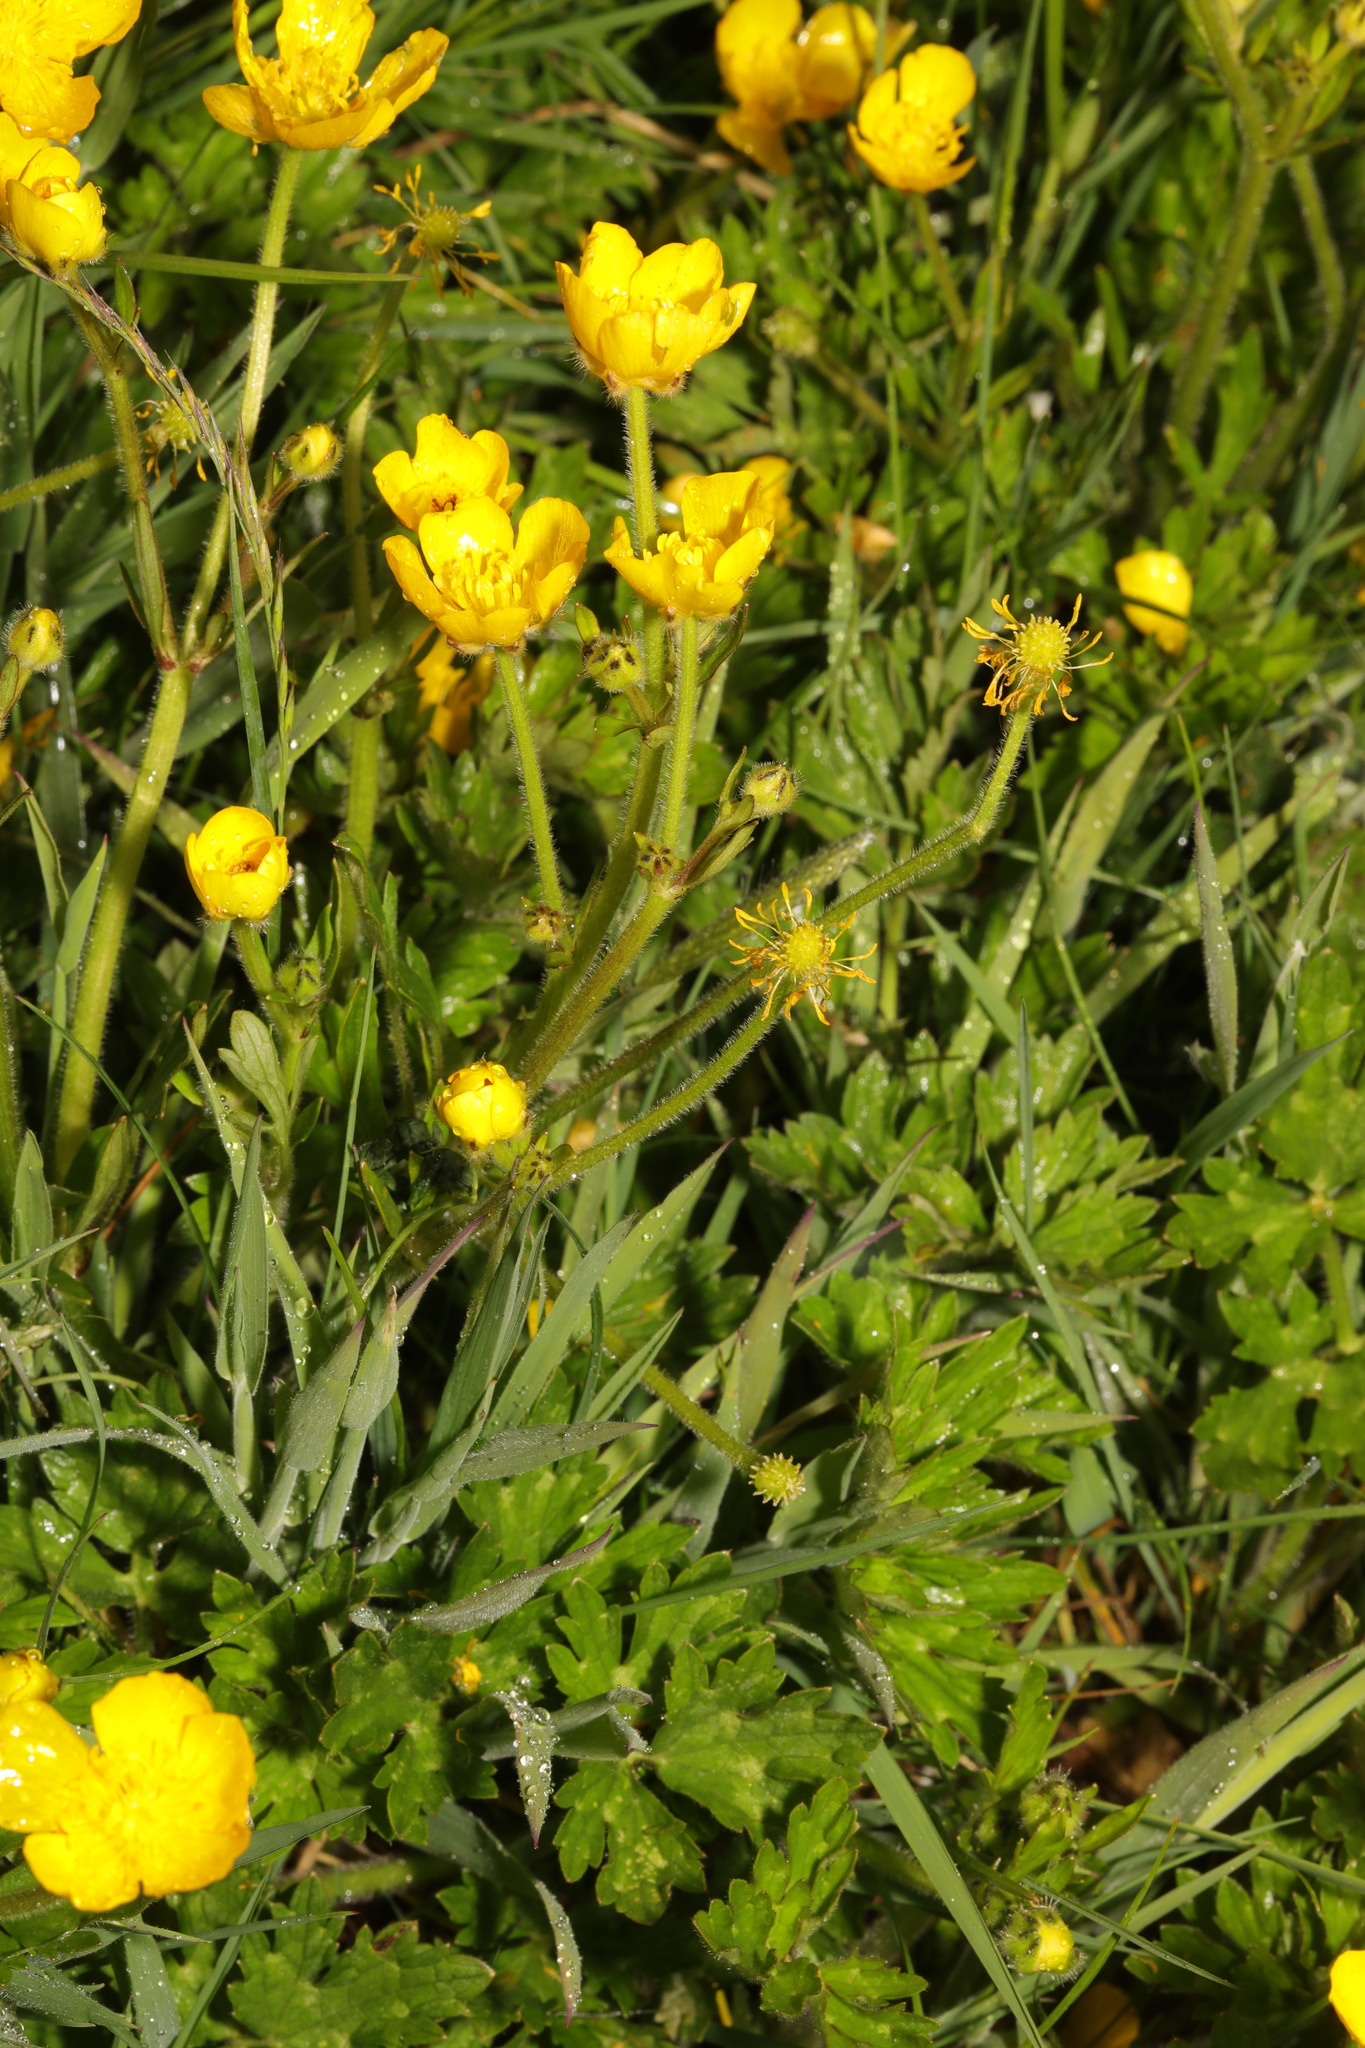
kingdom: Plantae
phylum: Tracheophyta
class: Magnoliopsida
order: Ranunculales
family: Ranunculaceae
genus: Ranunculus
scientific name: Ranunculus repens
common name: Creeping buttercup
